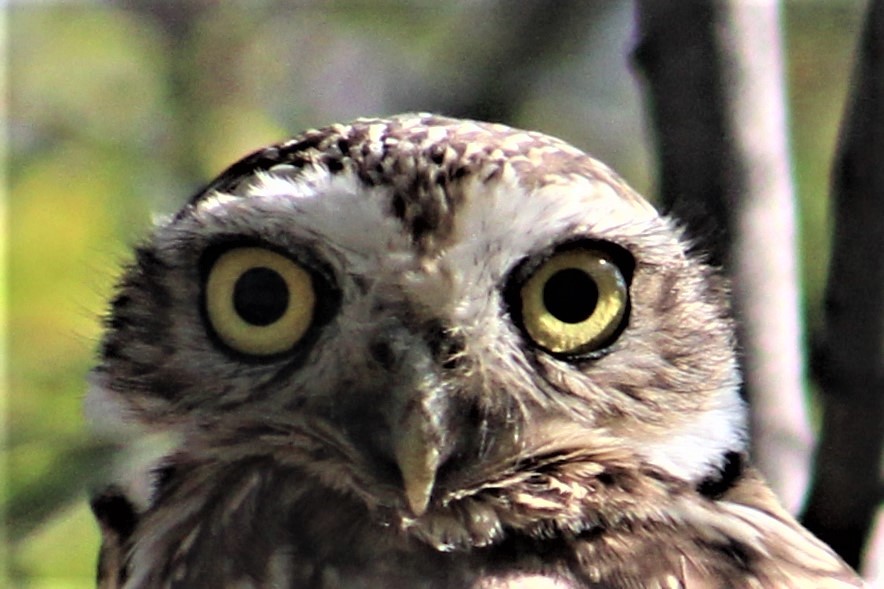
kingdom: Animalia
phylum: Chordata
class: Aves
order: Strigiformes
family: Strigidae
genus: Athene
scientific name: Athene cunicularia
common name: Burrowing owl
